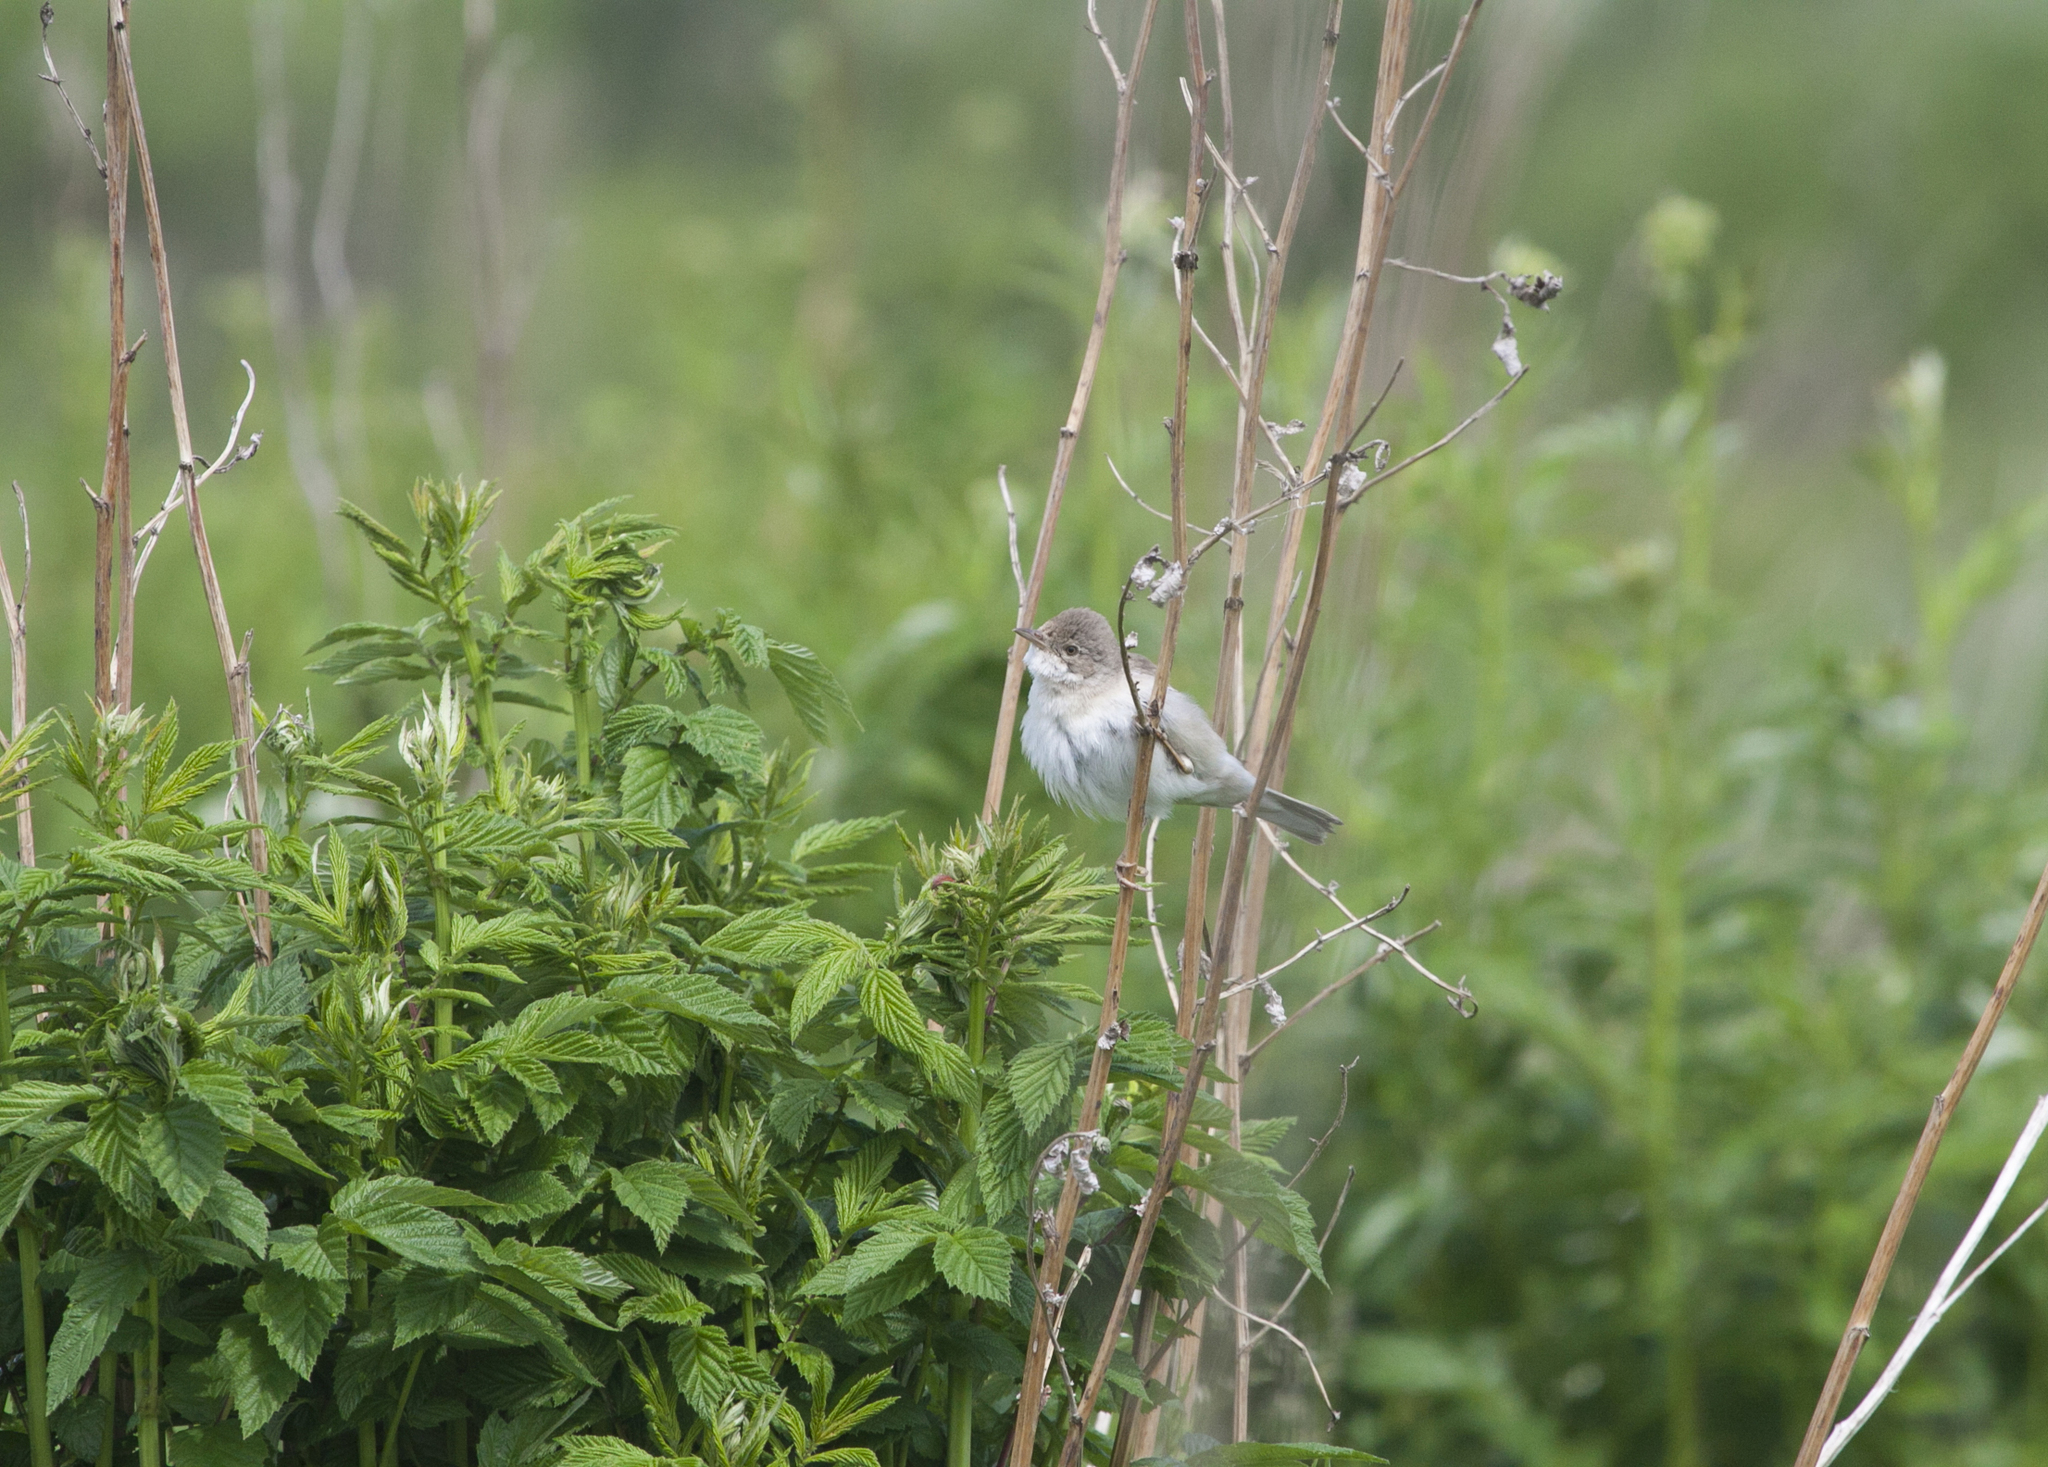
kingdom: Animalia
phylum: Chordata
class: Aves
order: Passeriformes
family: Sylviidae
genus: Sylvia
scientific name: Sylvia communis
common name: Common whitethroat
